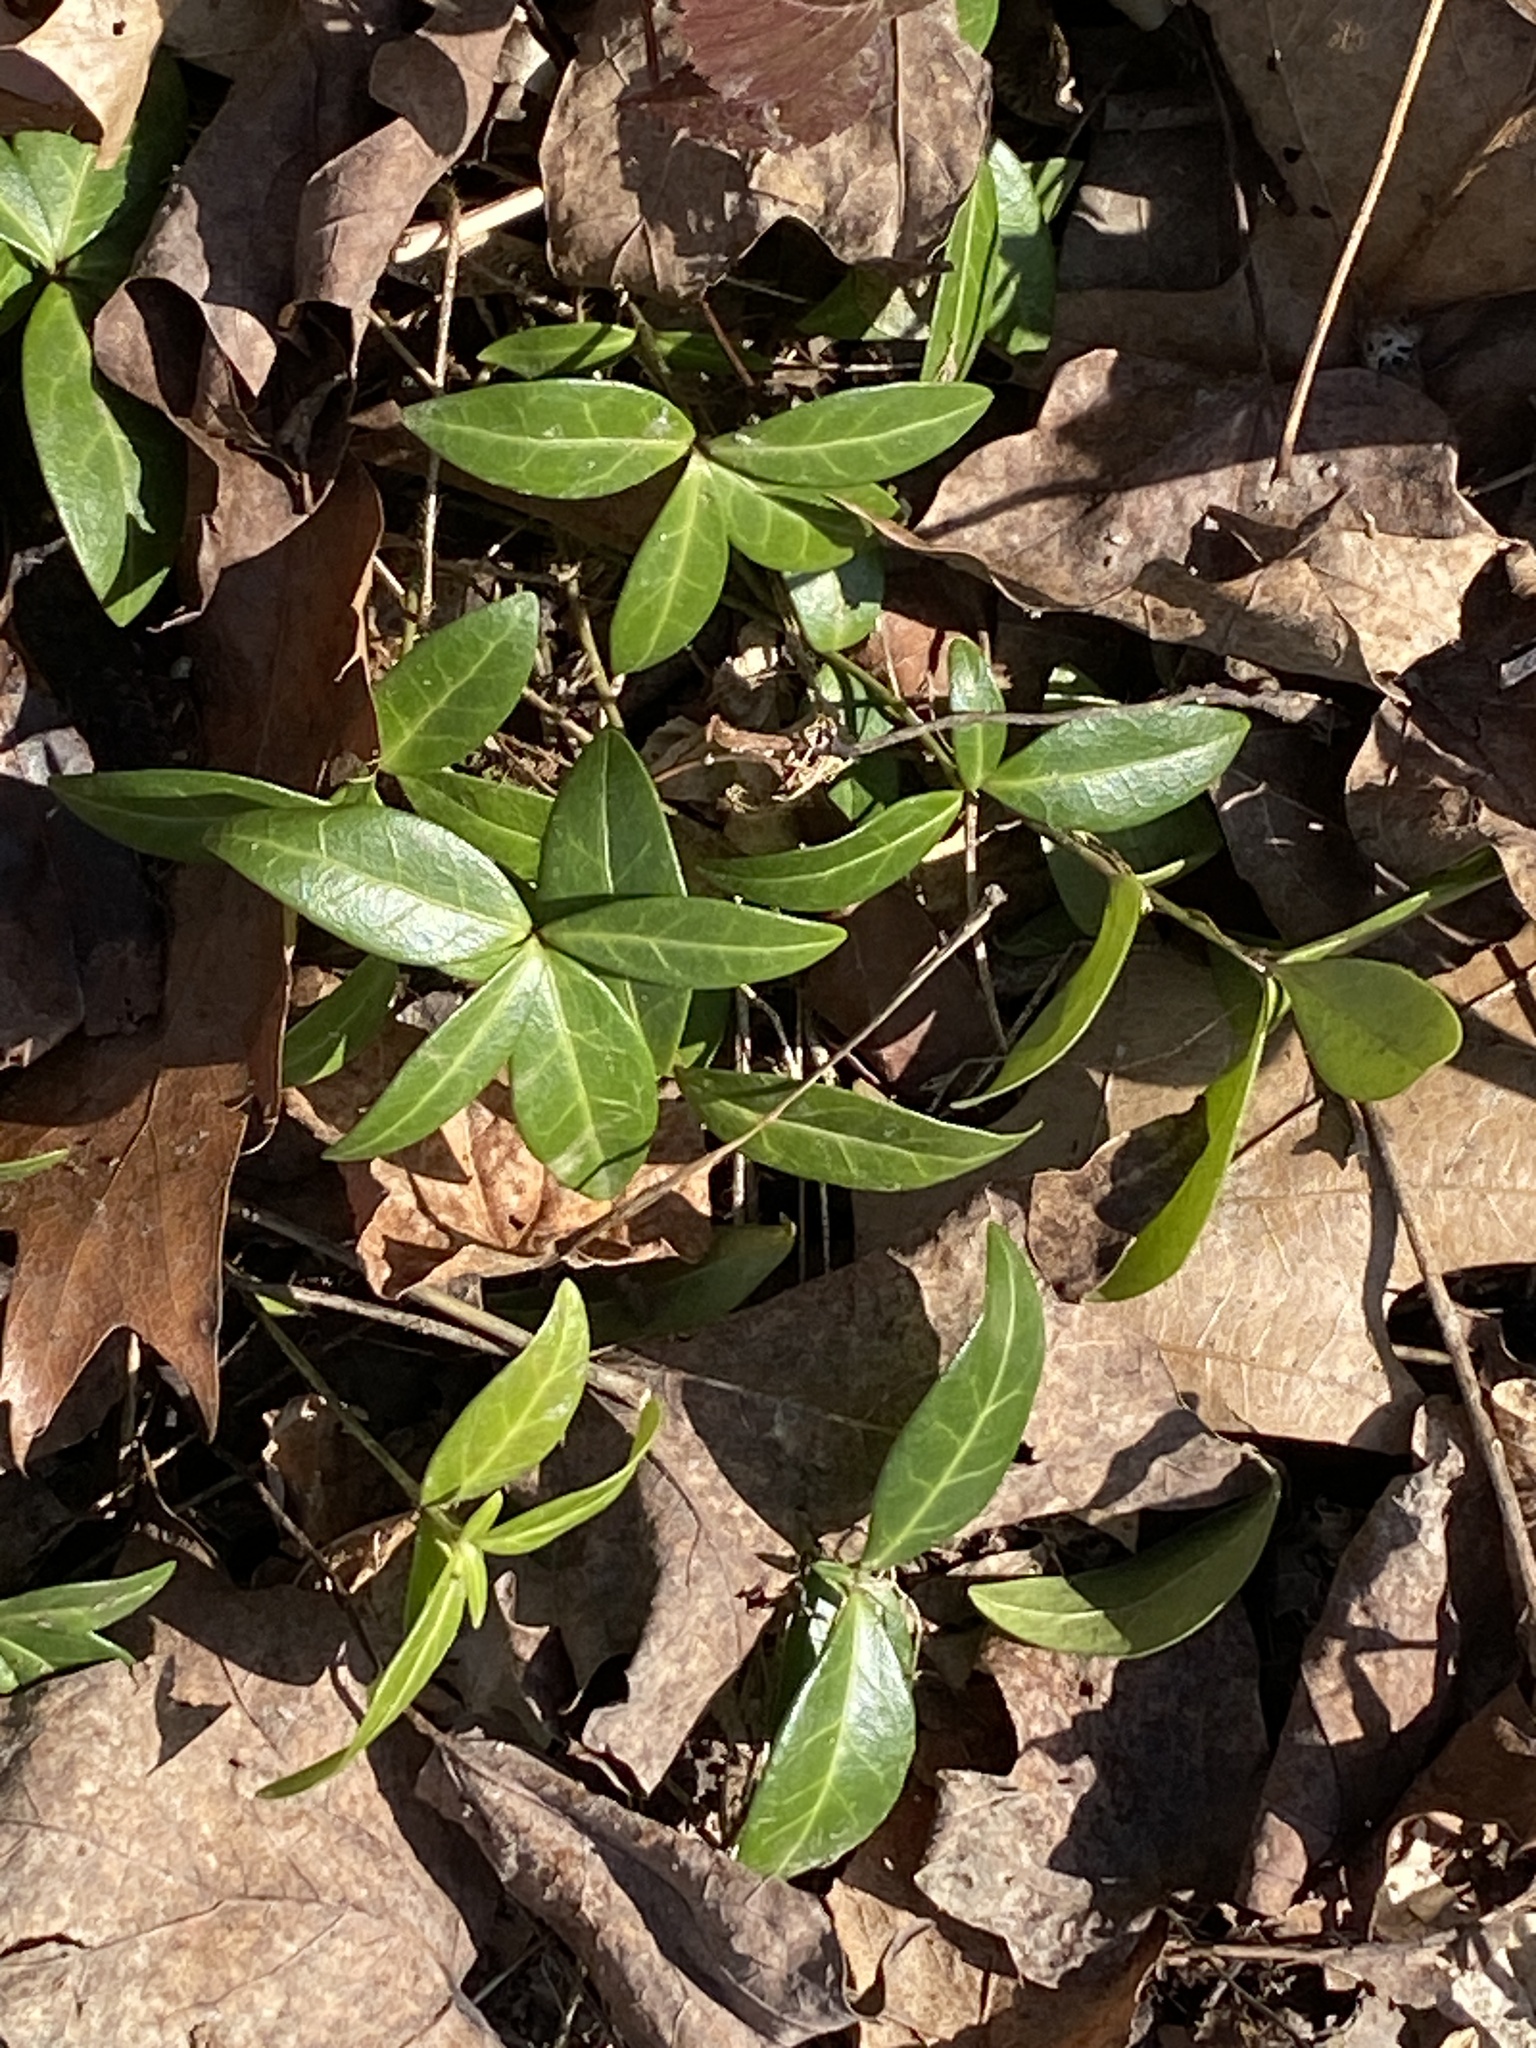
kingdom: Plantae
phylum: Tracheophyta
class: Magnoliopsida
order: Gentianales
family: Apocynaceae
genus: Vinca
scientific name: Vinca minor
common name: Lesser periwinkle
